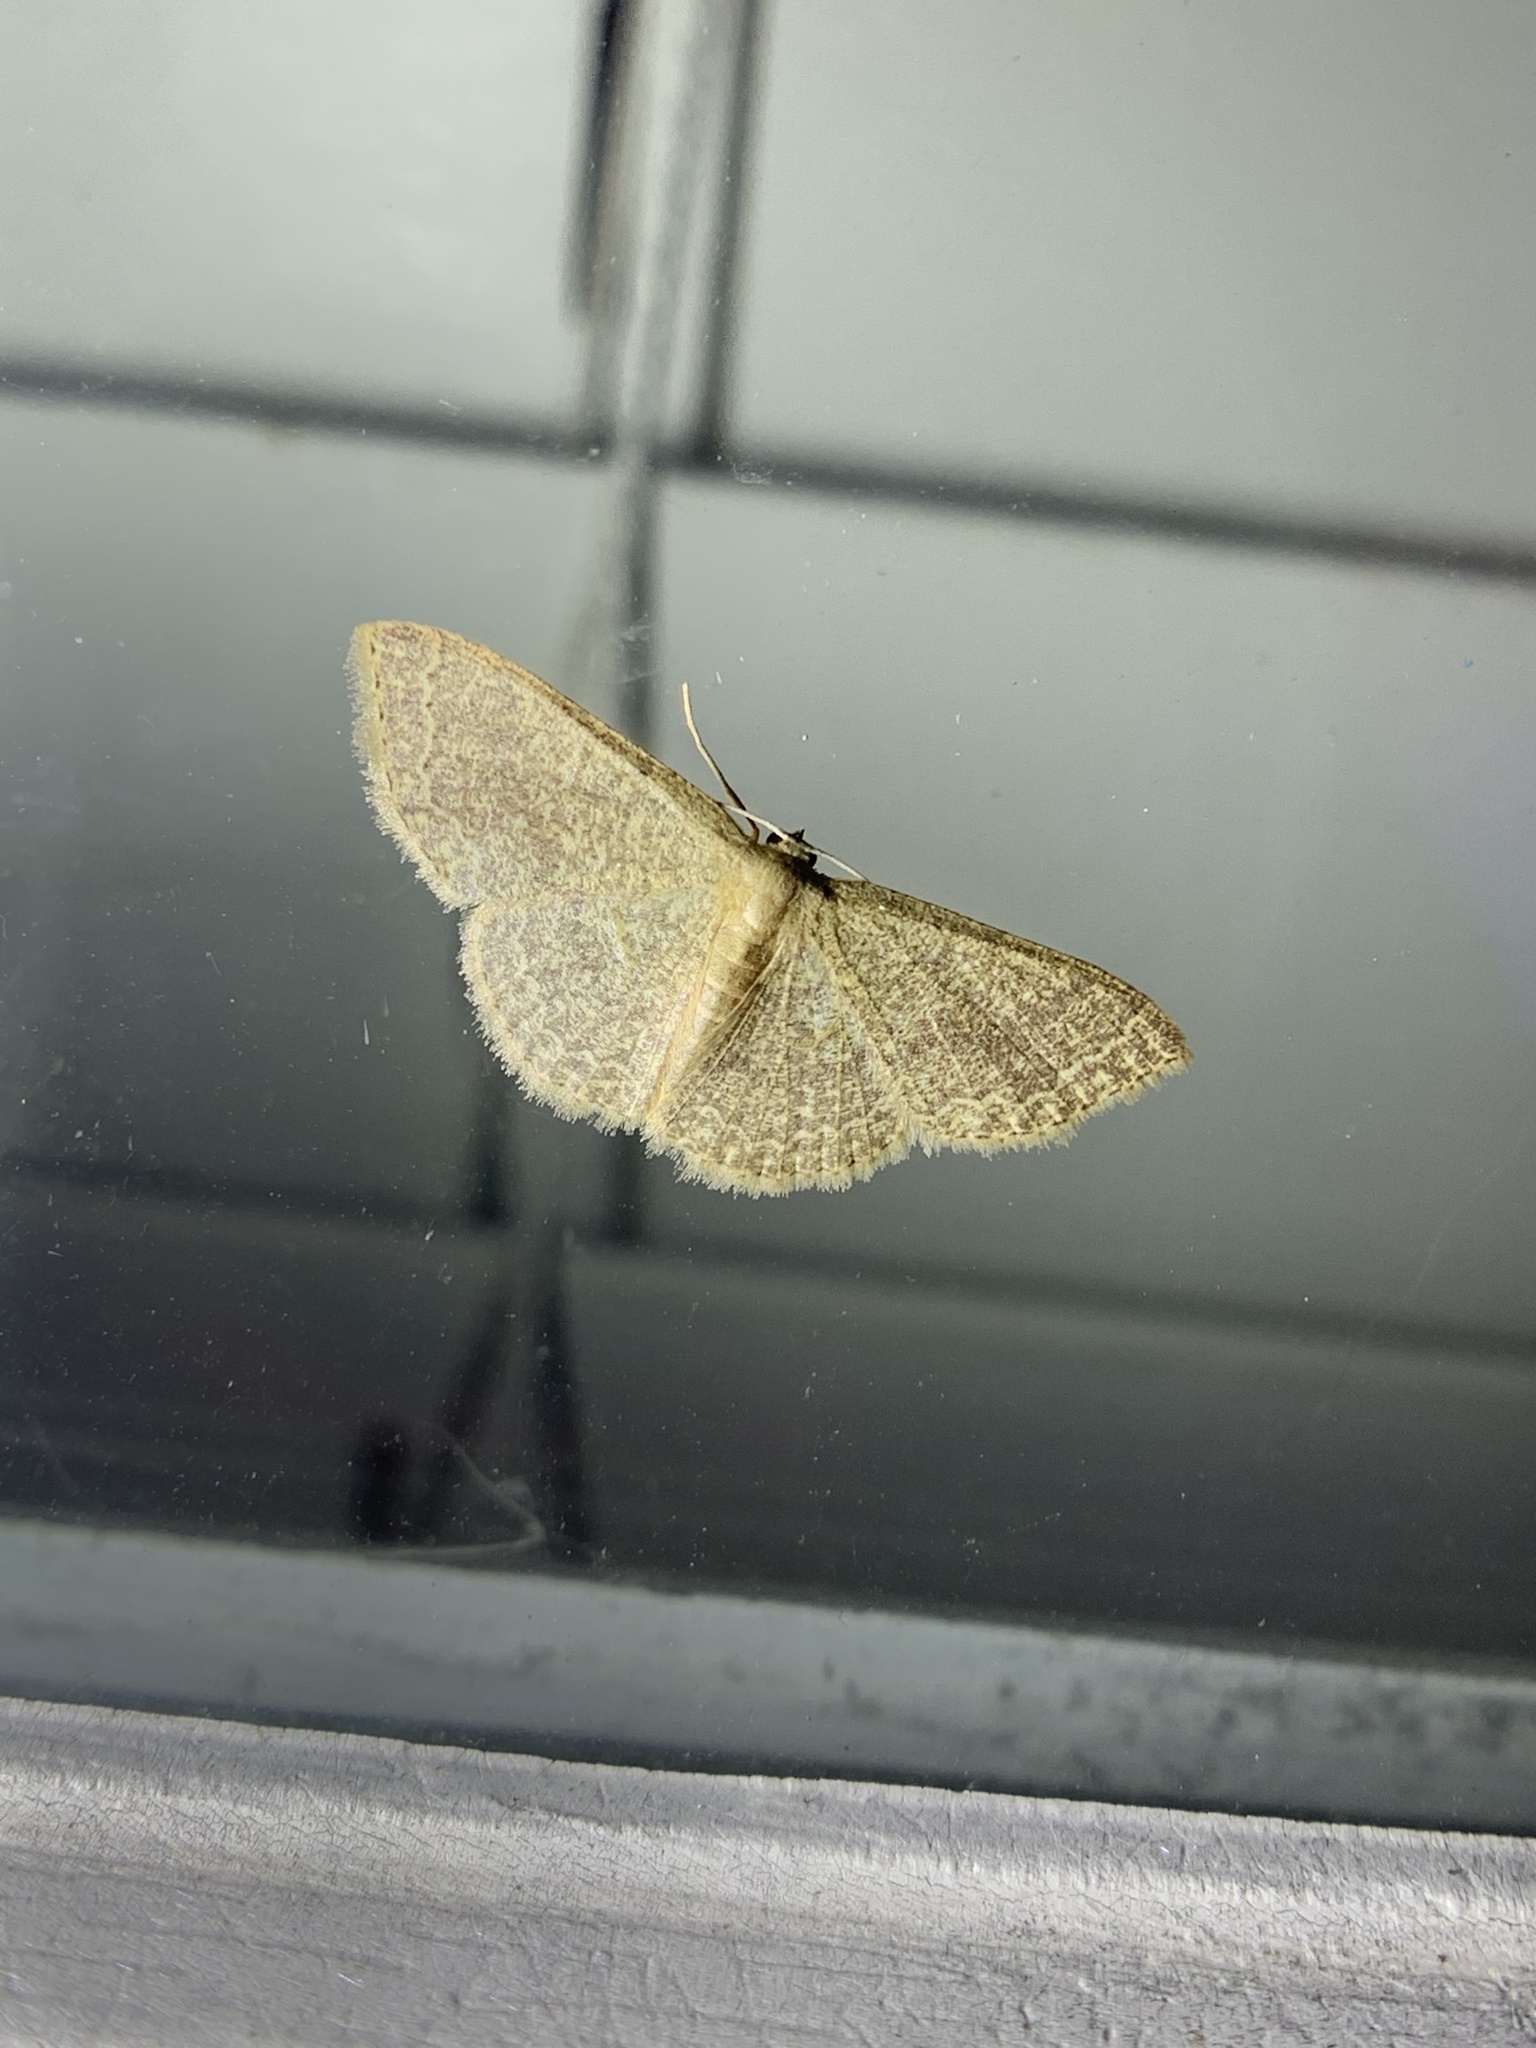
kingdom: Animalia
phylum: Arthropoda
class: Insecta
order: Lepidoptera
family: Geometridae
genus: Pleuroprucha
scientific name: Pleuroprucha insulsaria
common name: Common tan wave
